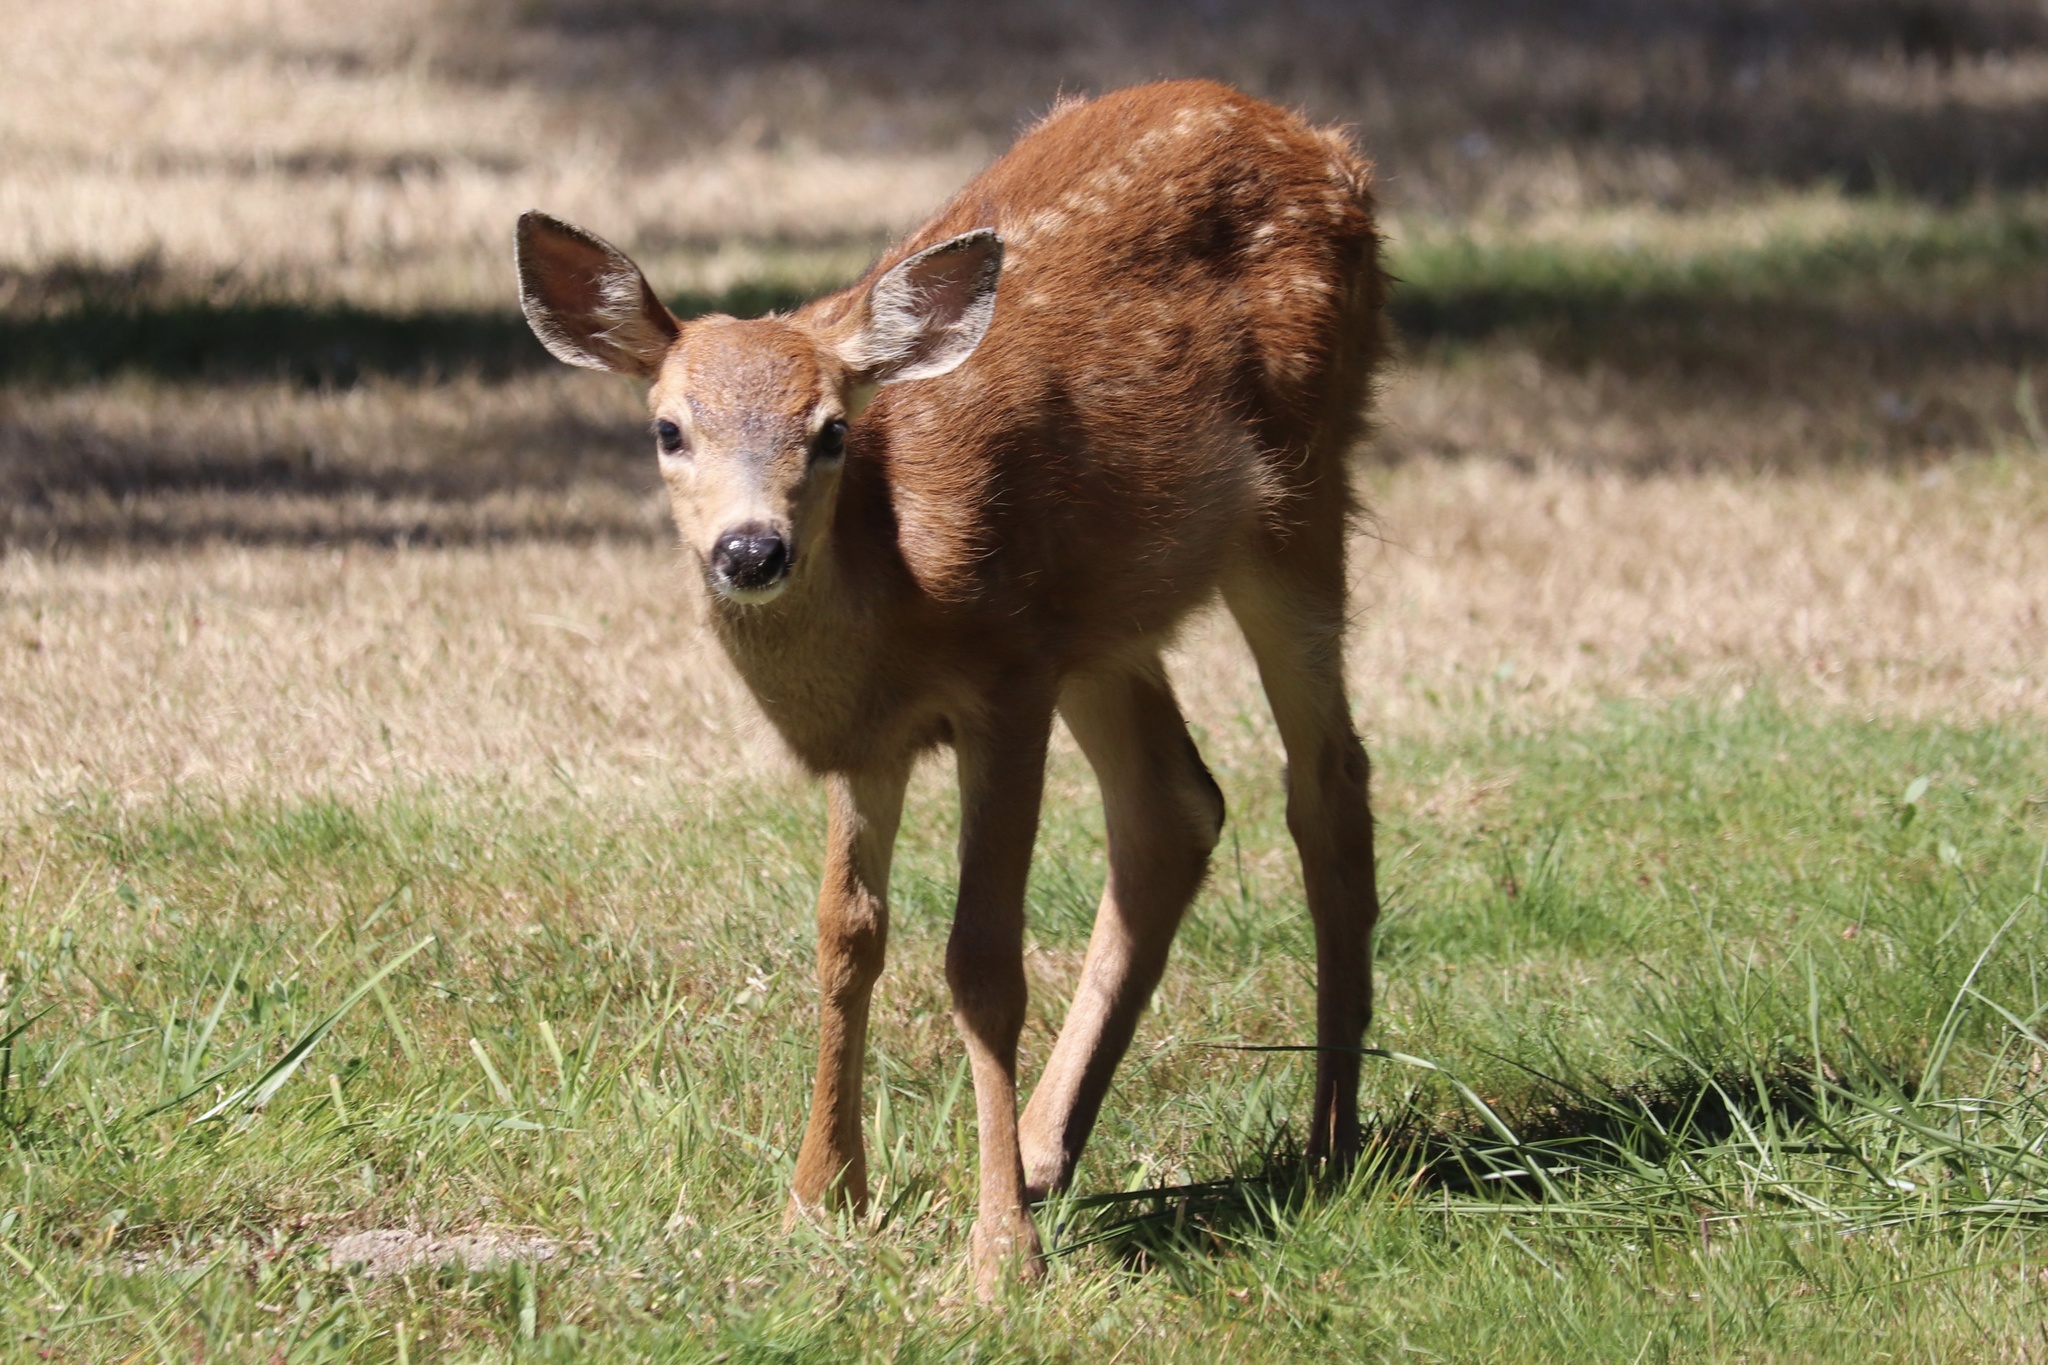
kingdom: Animalia
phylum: Chordata
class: Mammalia
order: Artiodactyla
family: Cervidae
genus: Odocoileus
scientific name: Odocoileus hemionus
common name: Mule deer
